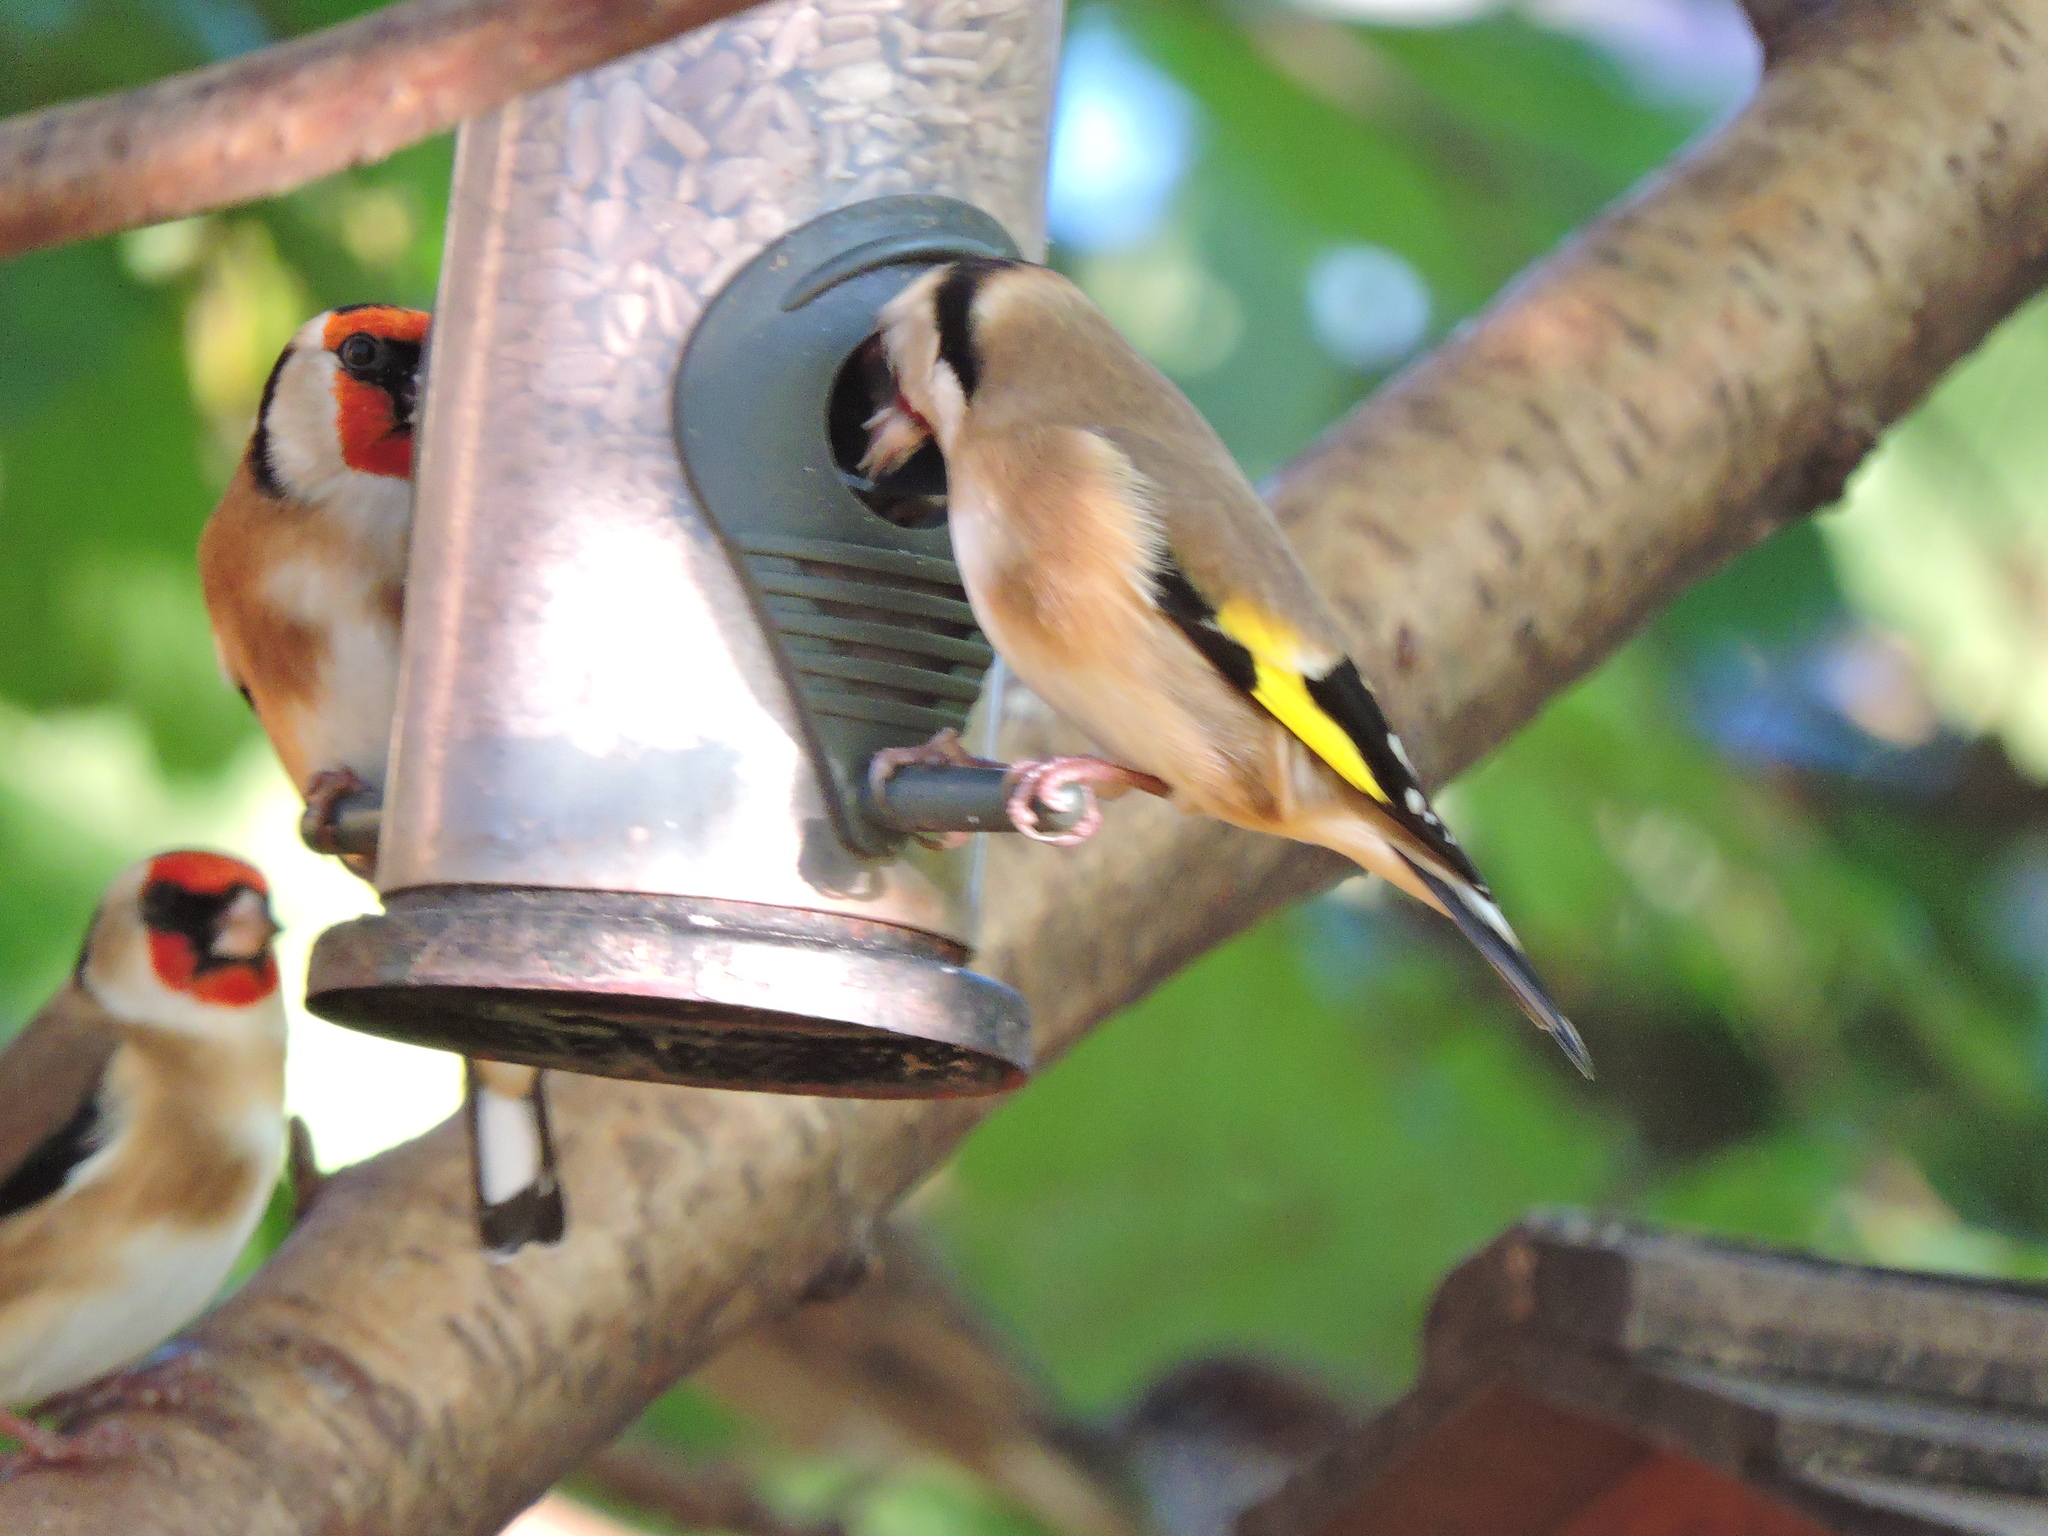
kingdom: Animalia
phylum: Chordata
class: Aves
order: Passeriformes
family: Fringillidae
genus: Carduelis
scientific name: Carduelis carduelis
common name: European goldfinch
